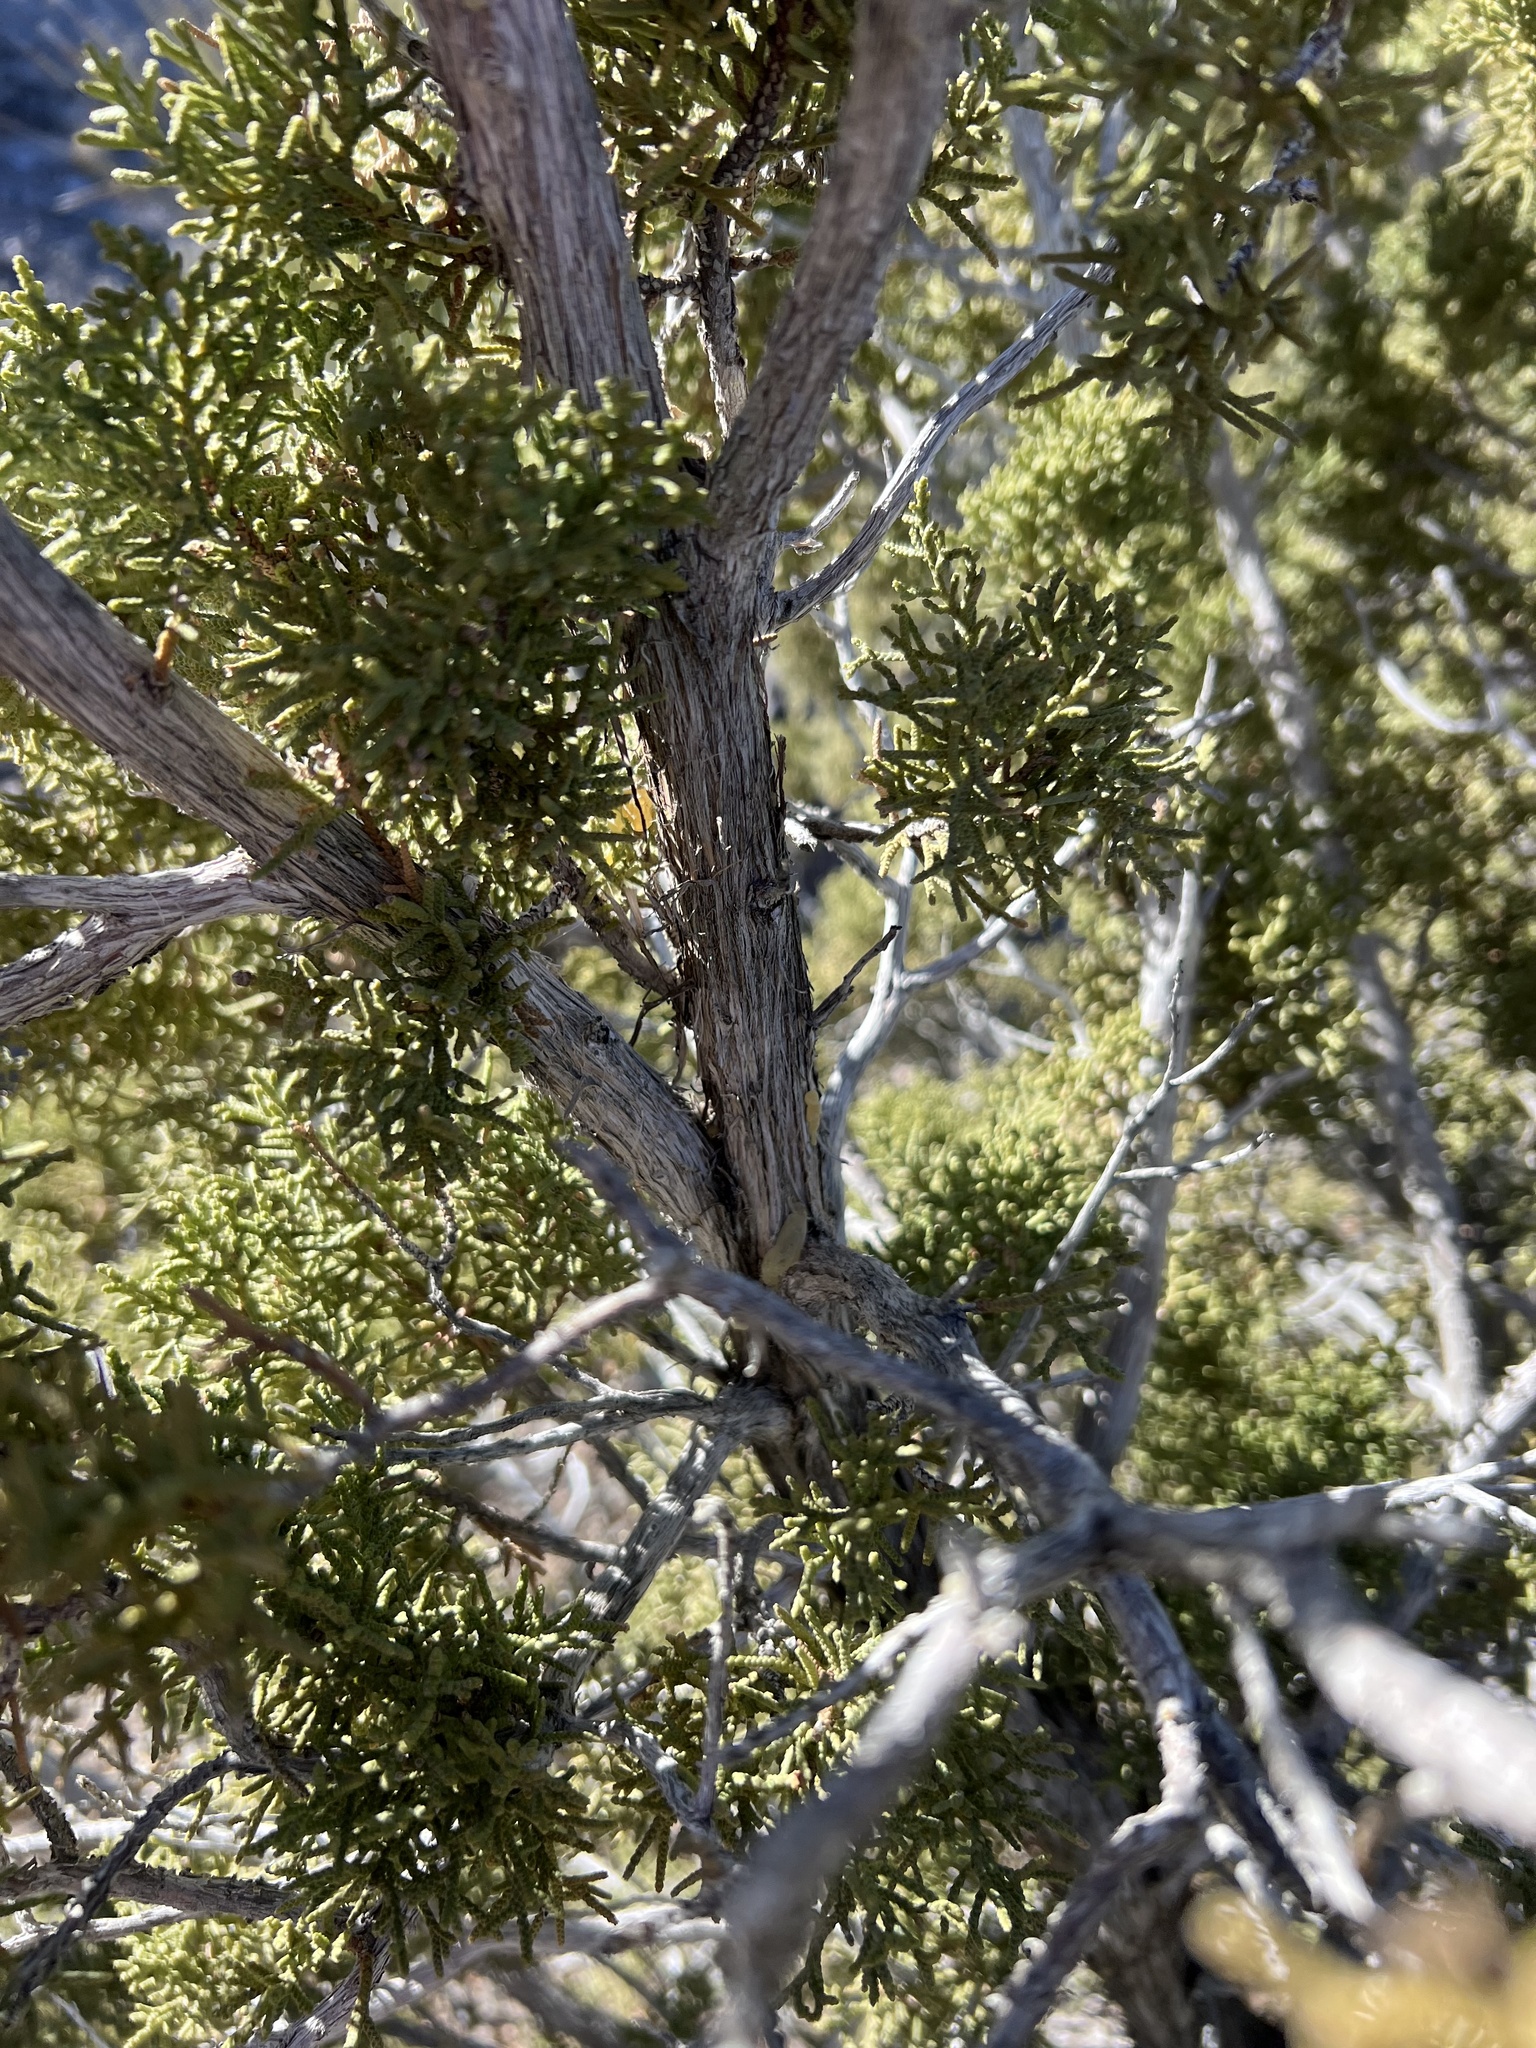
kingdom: Plantae
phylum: Tracheophyta
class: Pinopsida
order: Pinales
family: Cupressaceae
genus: Juniperus
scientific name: Juniperus monosperma
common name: One-seed juniper
